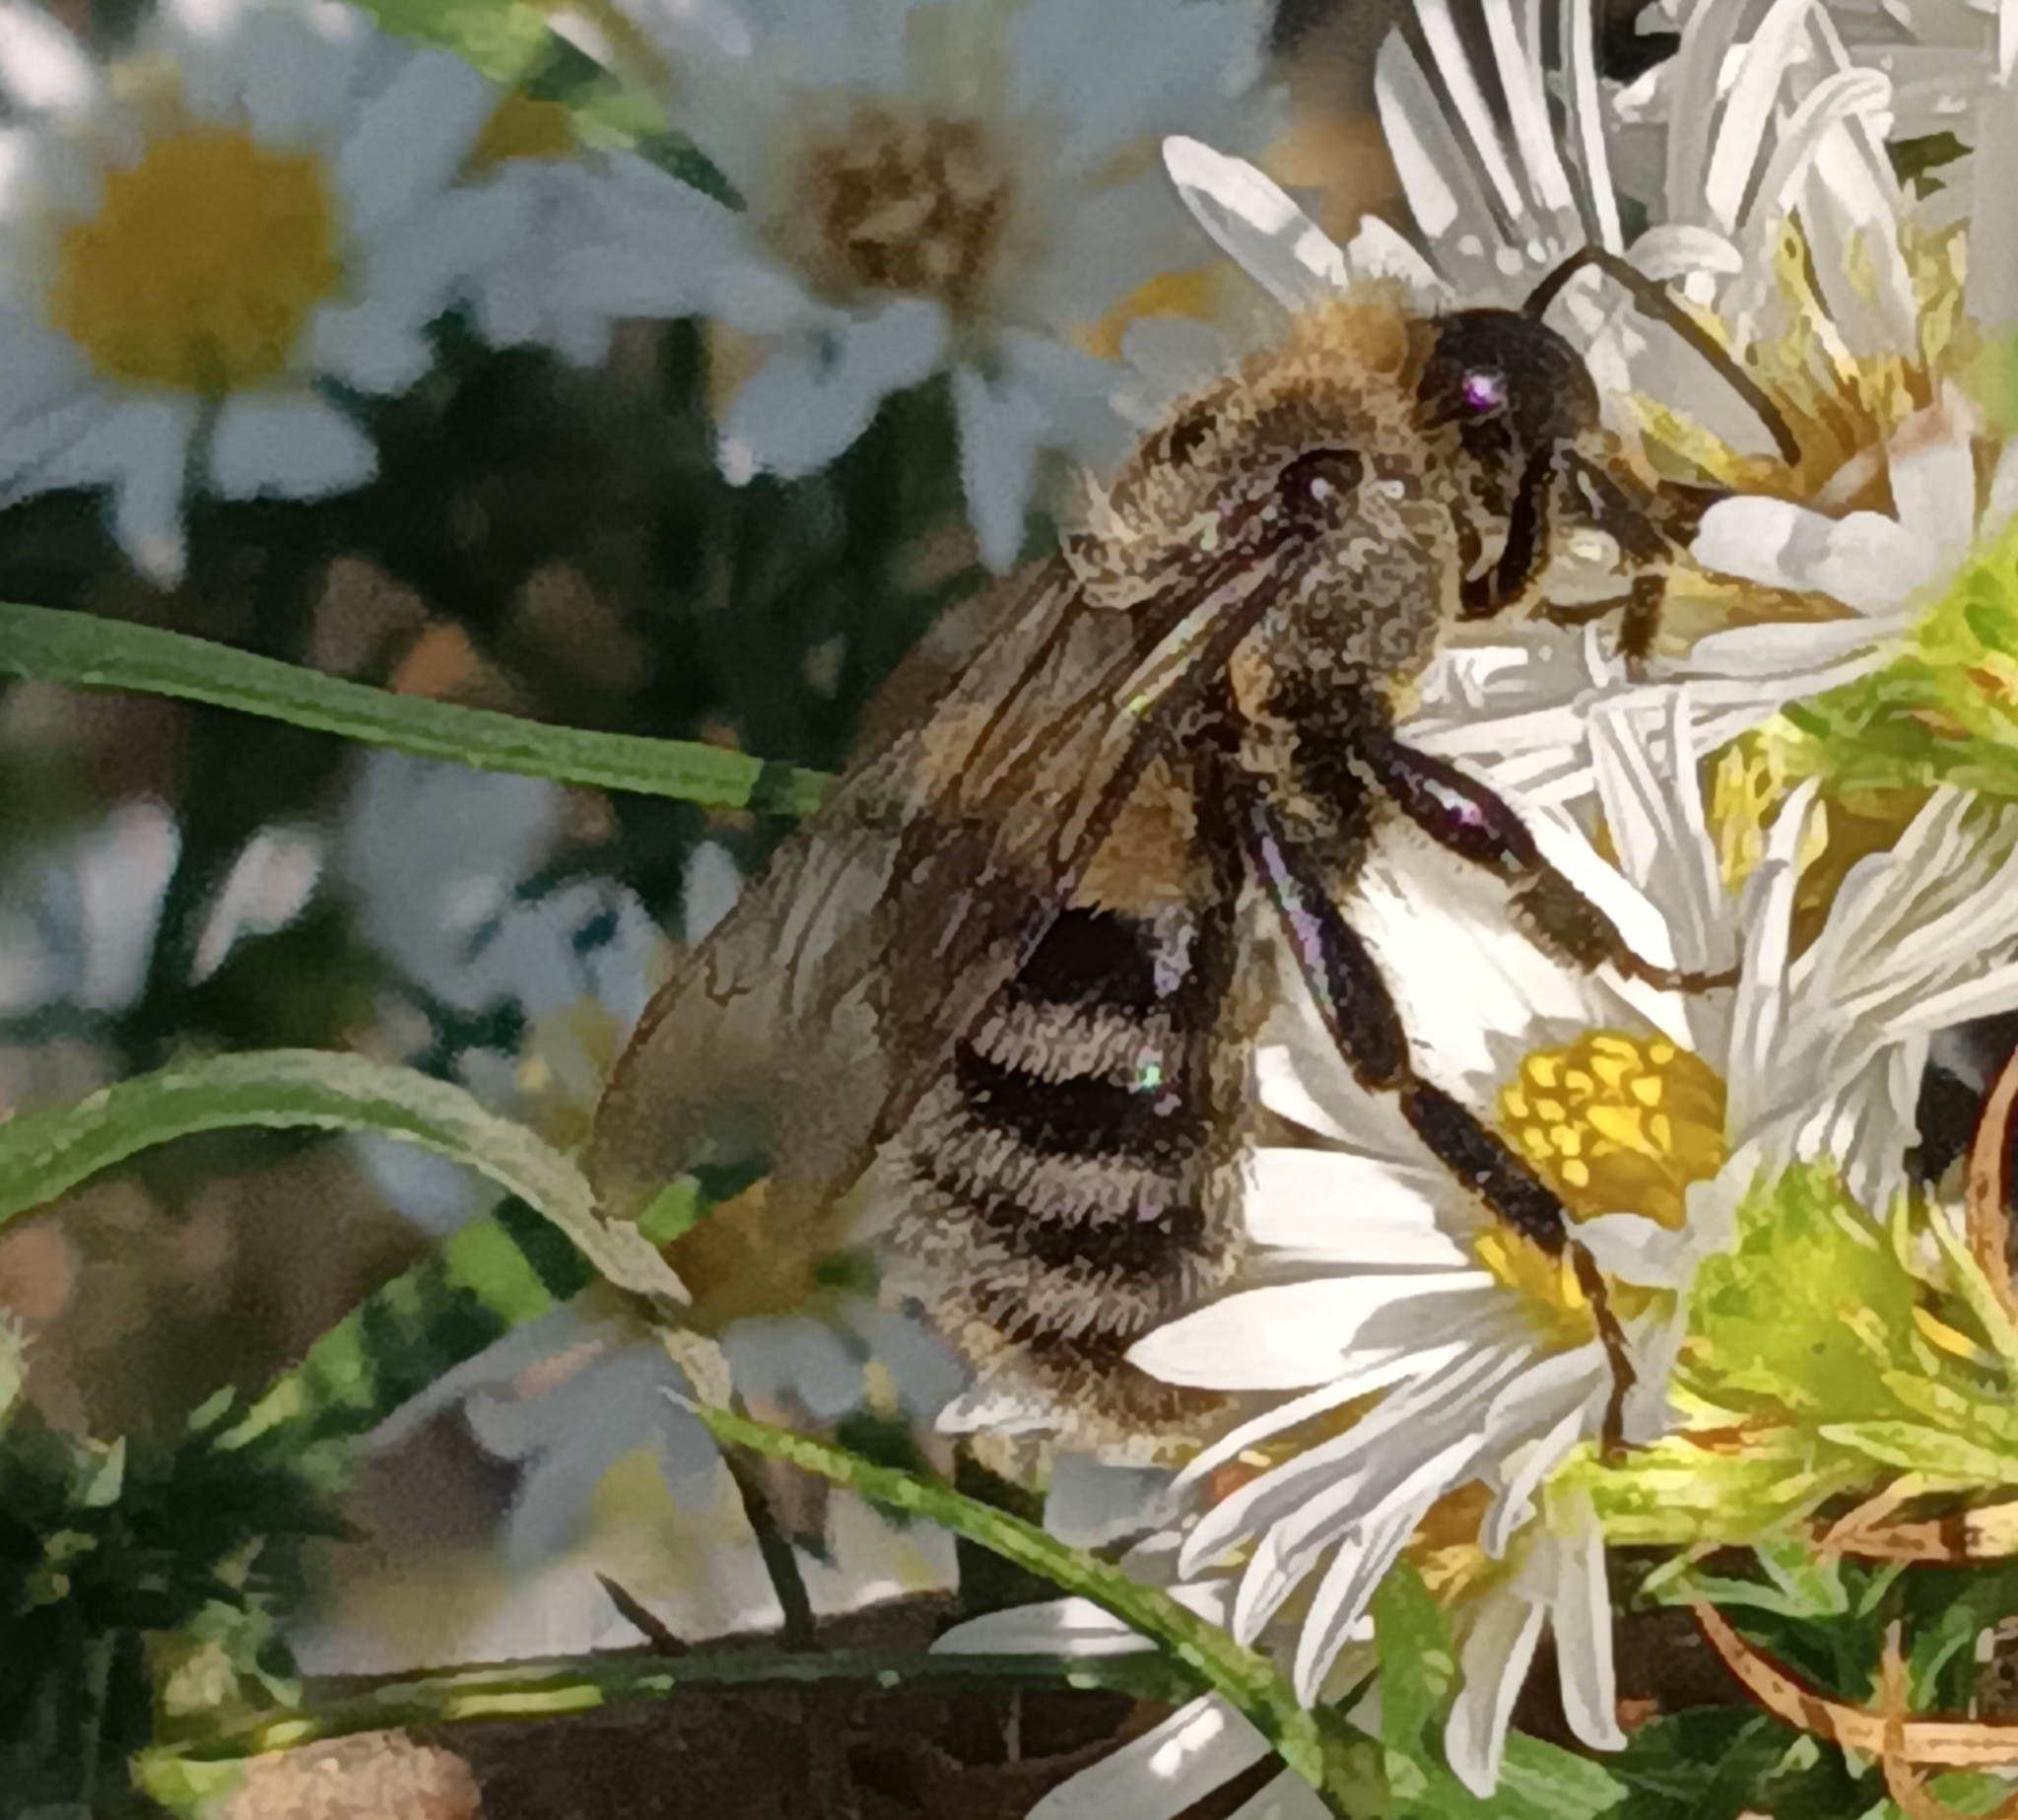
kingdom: Animalia
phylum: Arthropoda
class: Insecta
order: Hymenoptera
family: Apidae
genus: Bombus
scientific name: Bombus impatiens
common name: Common eastern bumble bee
